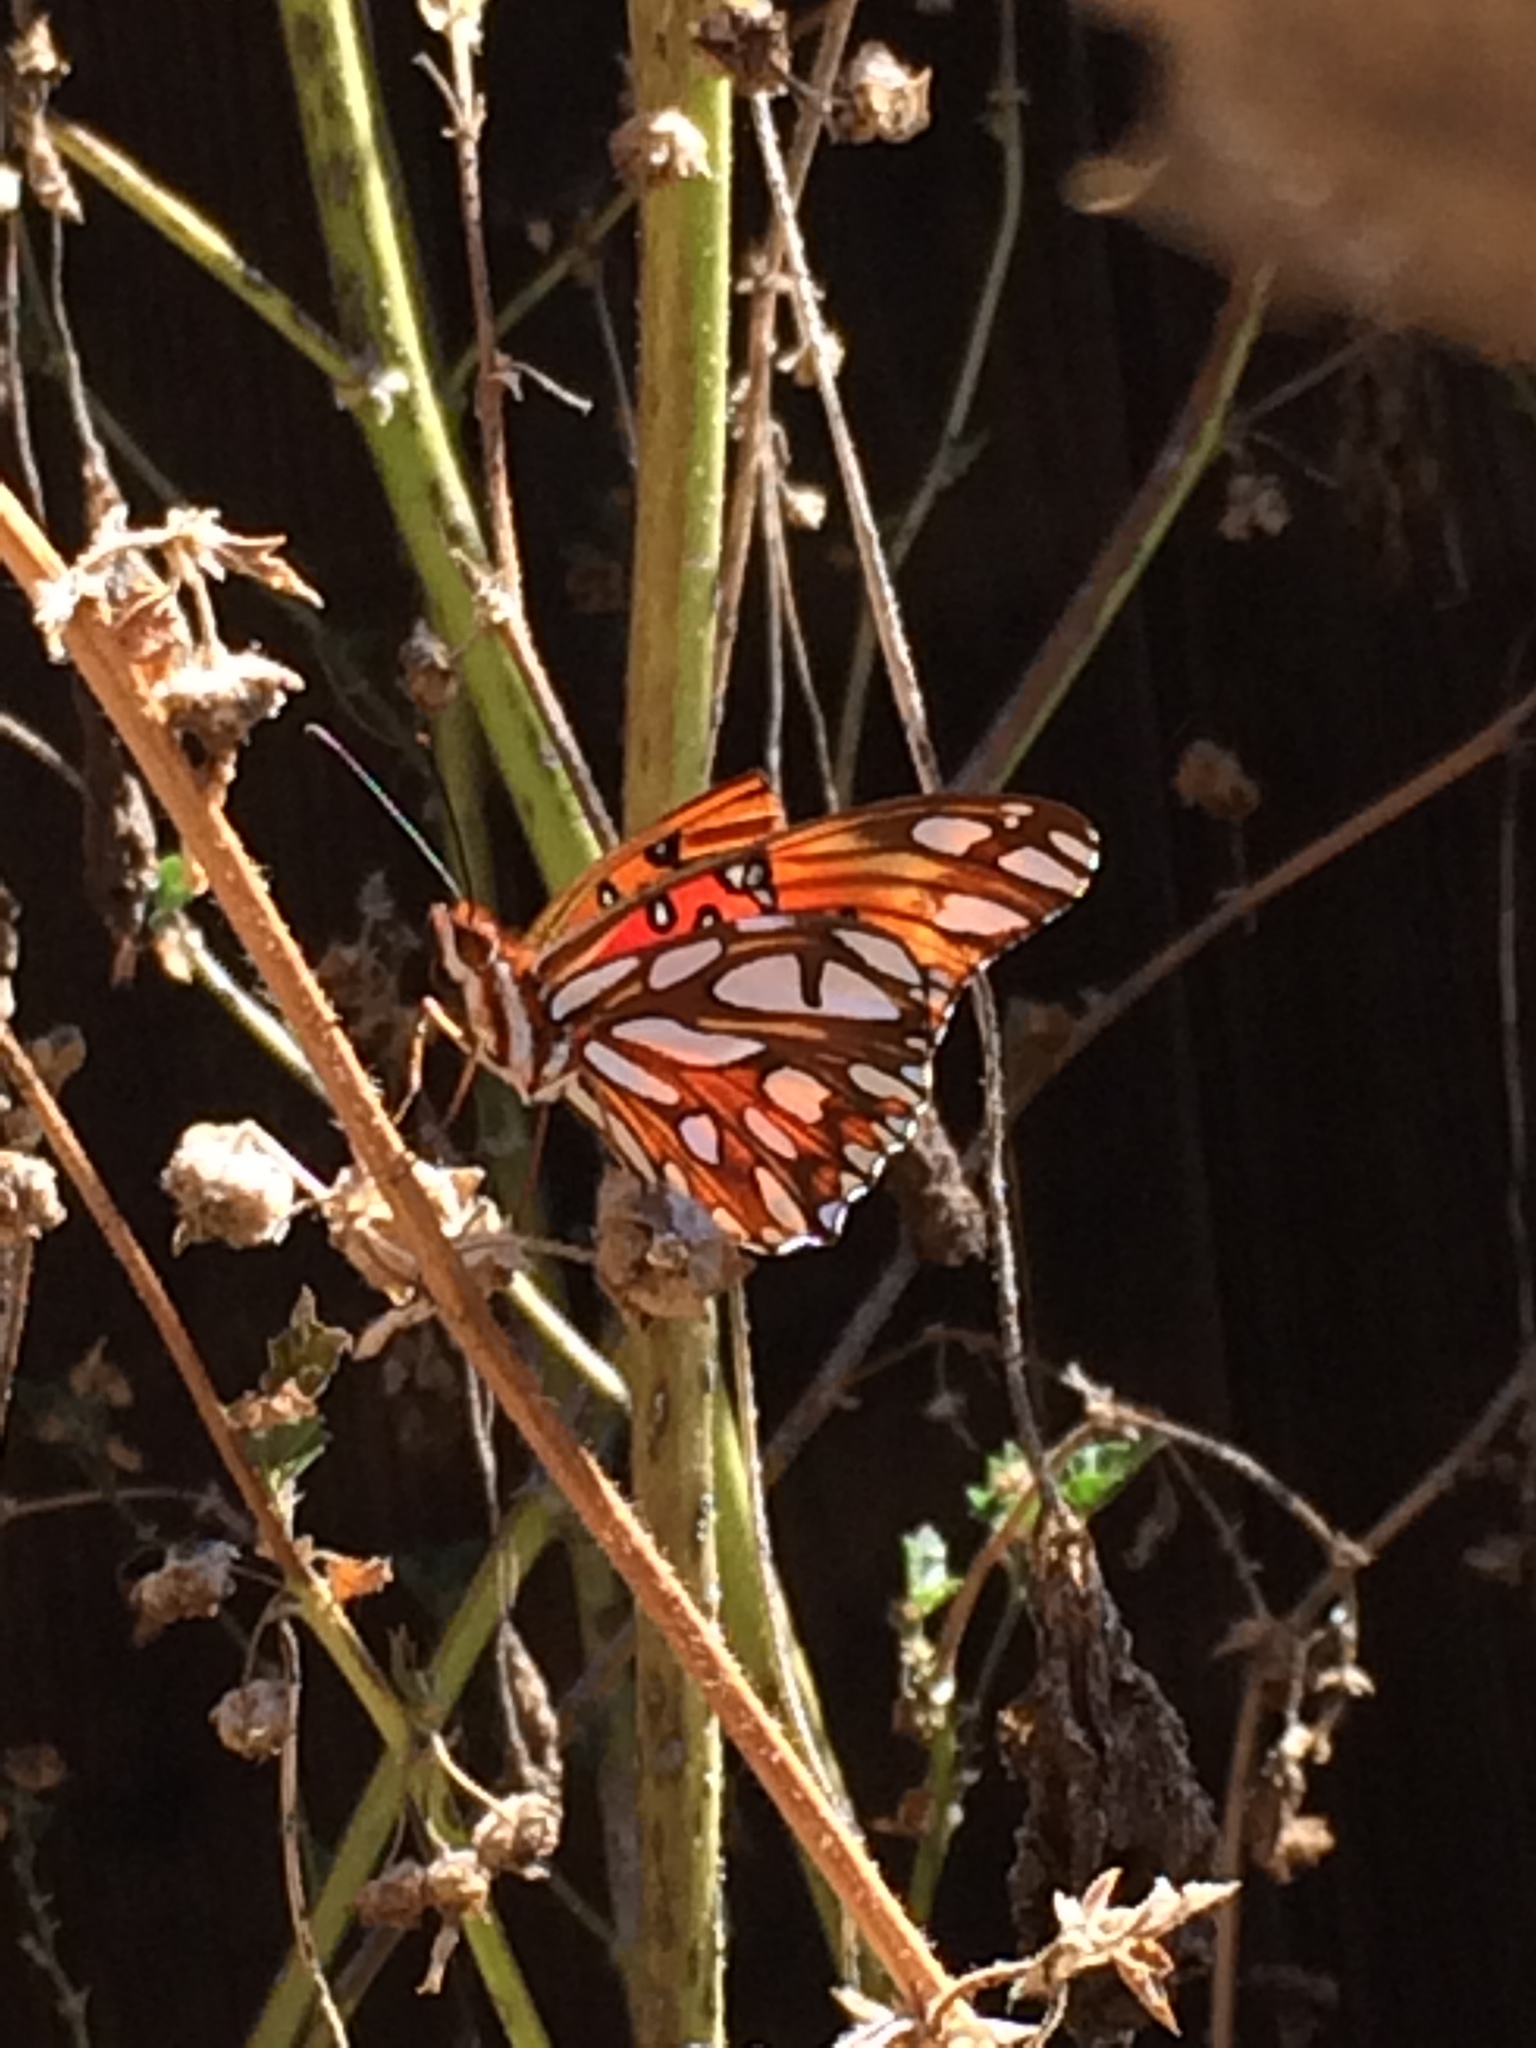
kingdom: Animalia
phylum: Arthropoda
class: Insecta
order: Lepidoptera
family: Nymphalidae
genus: Dione
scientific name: Dione vanillae
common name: Gulf fritillary
